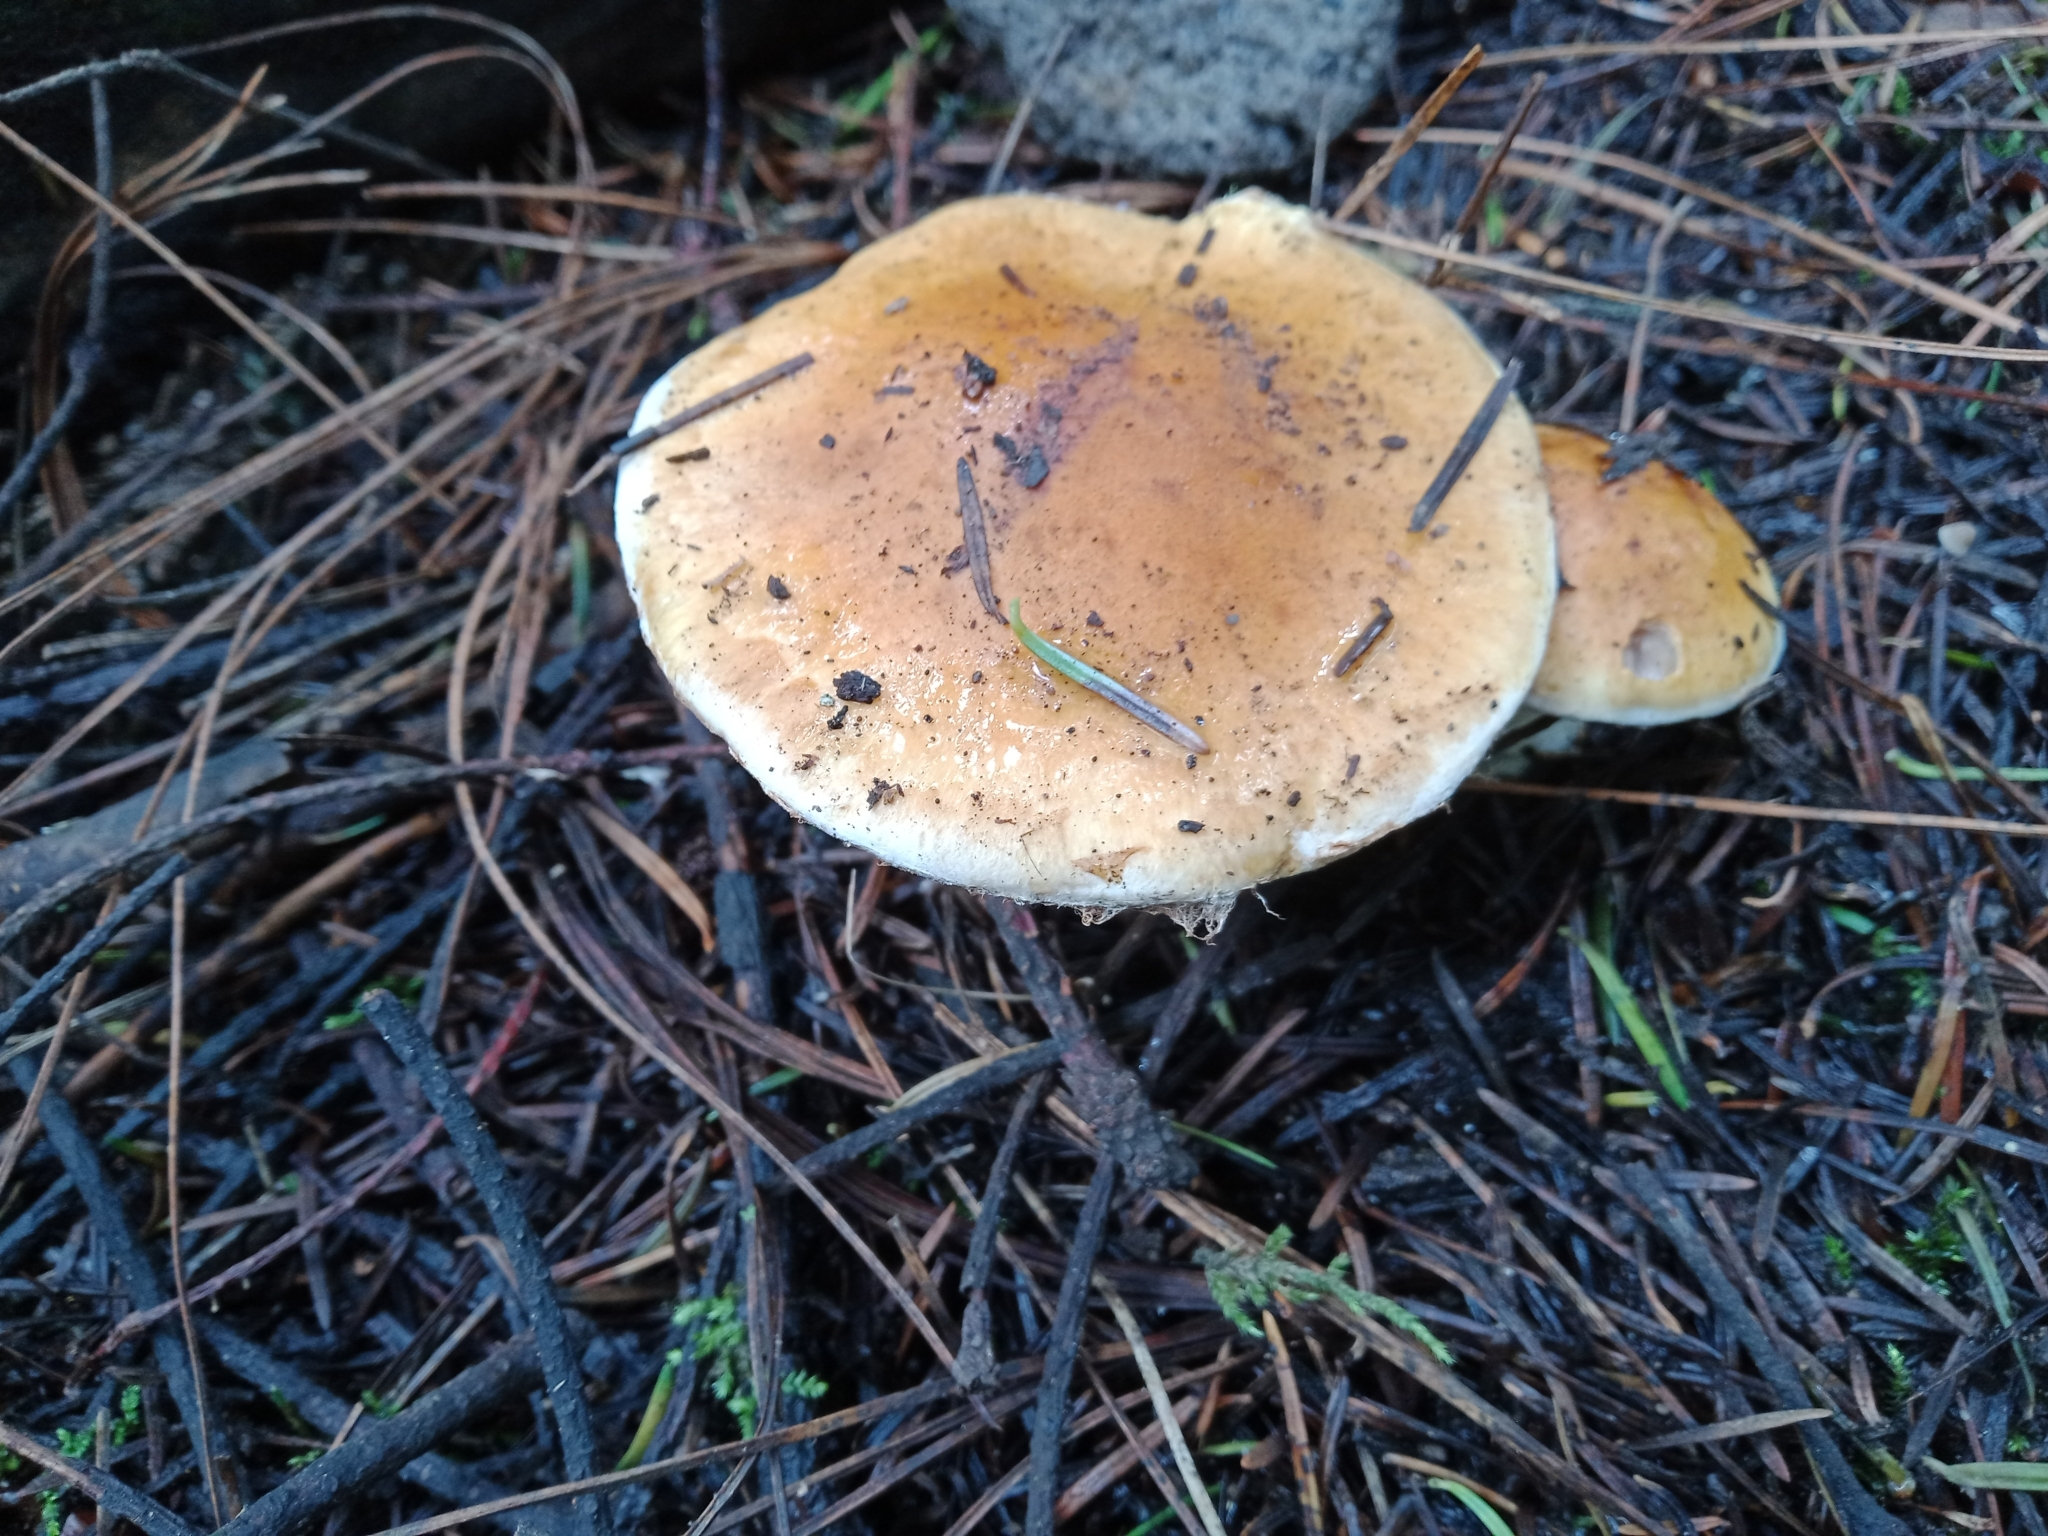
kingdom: Fungi
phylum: Basidiomycota
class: Agaricomycetes
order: Agaricales
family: Hymenogastraceae
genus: Psilocybe
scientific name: Psilocybe coronilla
